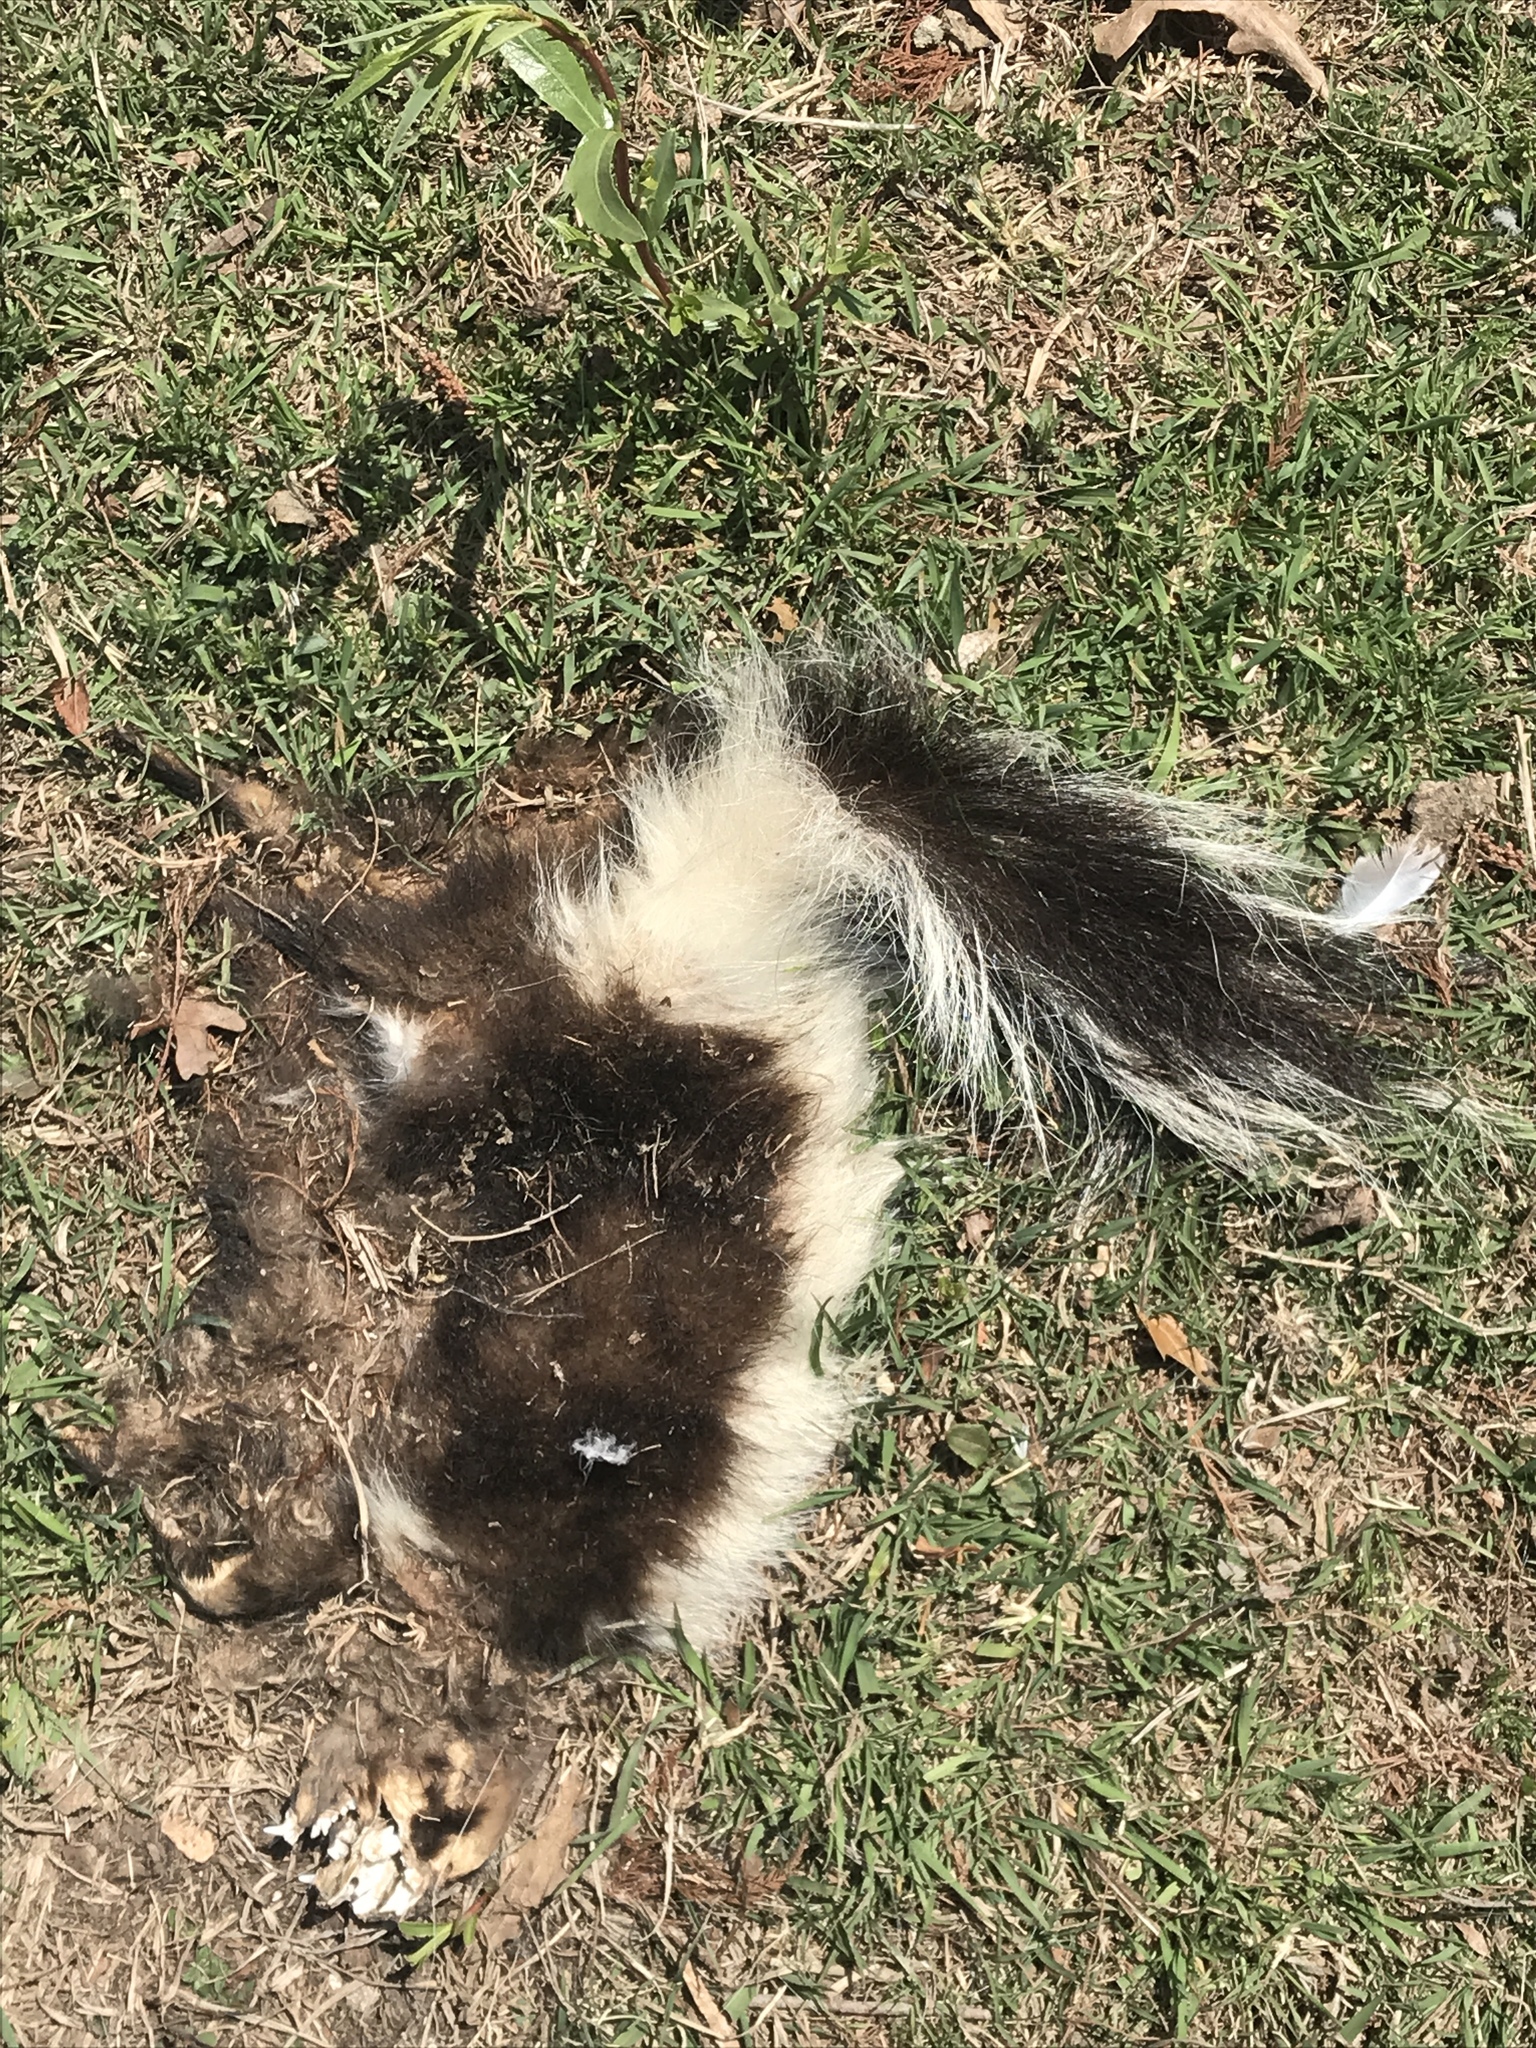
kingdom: Animalia
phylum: Chordata
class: Mammalia
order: Carnivora
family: Mephitidae
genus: Mephitis
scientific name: Mephitis mephitis
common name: Striped skunk
